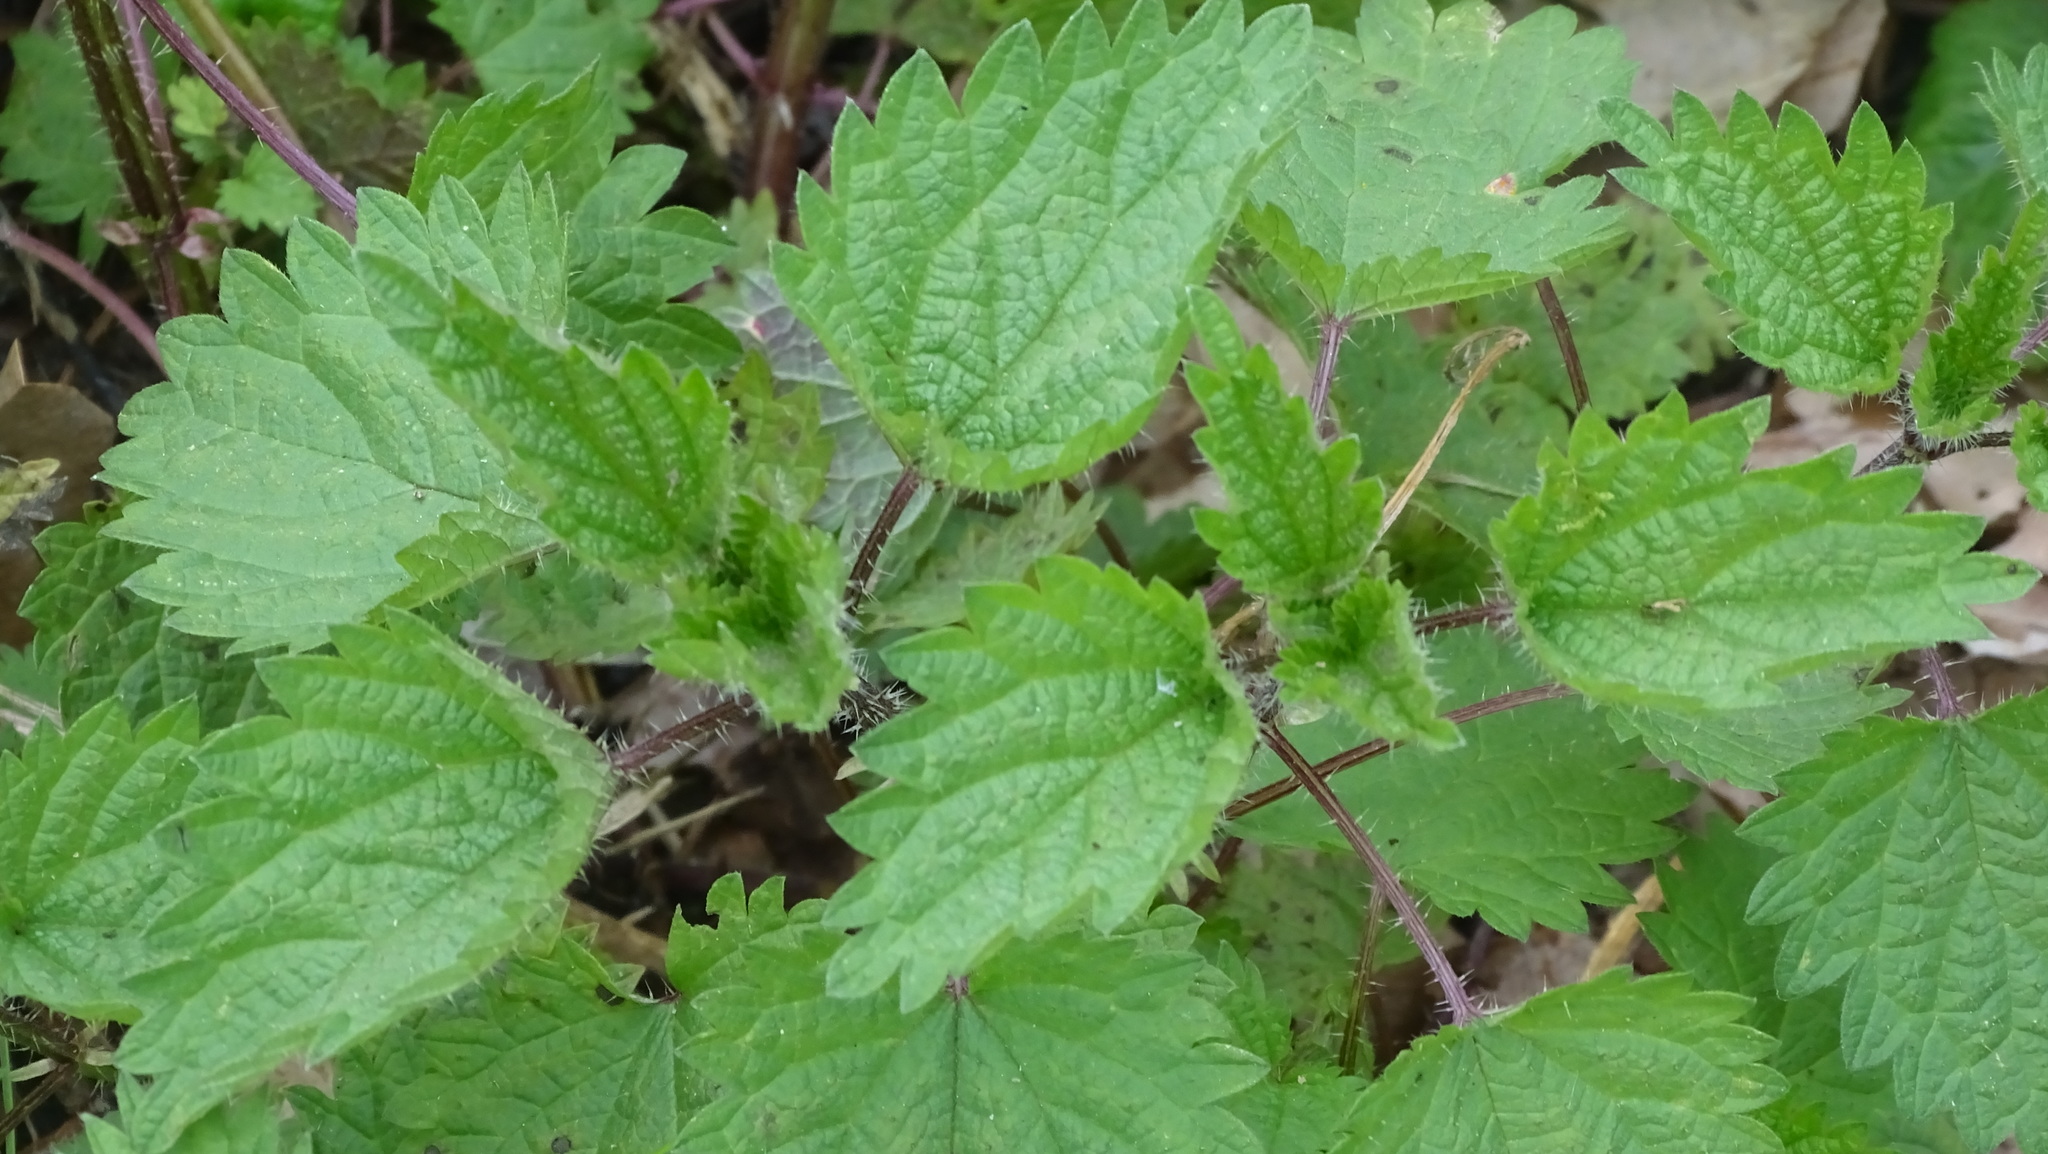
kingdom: Plantae
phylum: Tracheophyta
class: Magnoliopsida
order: Rosales
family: Urticaceae
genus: Urtica
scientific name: Urtica dioica
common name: Common nettle
